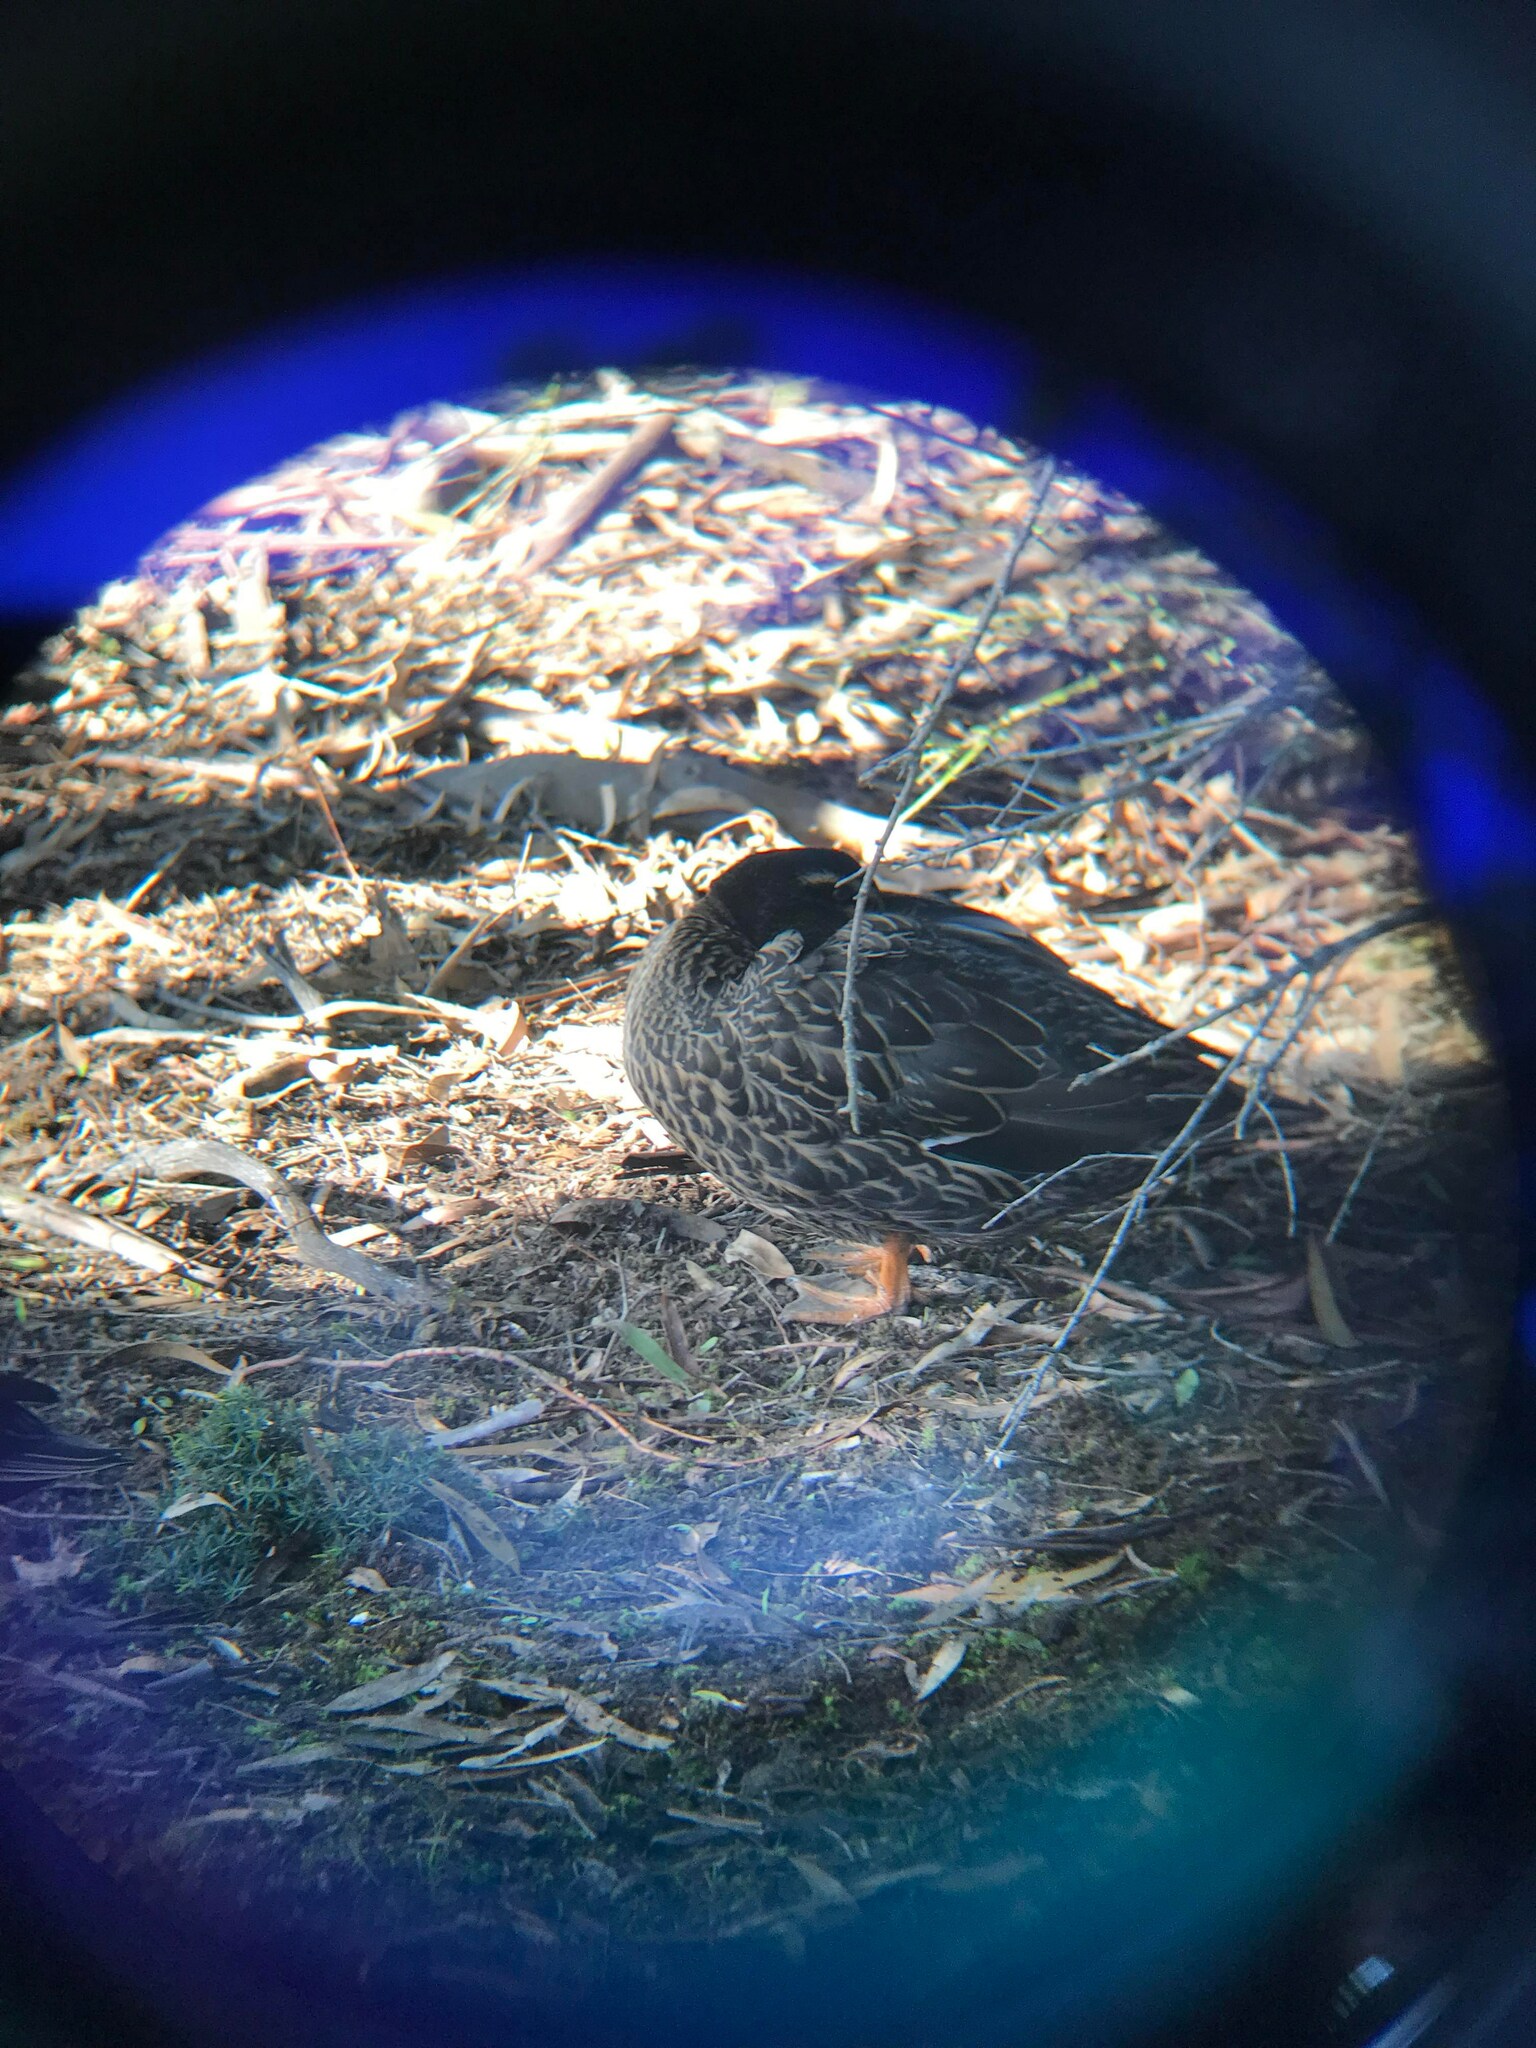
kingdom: Animalia
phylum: Chordata
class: Aves
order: Anseriformes
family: Anatidae
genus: Anas
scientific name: Anas
